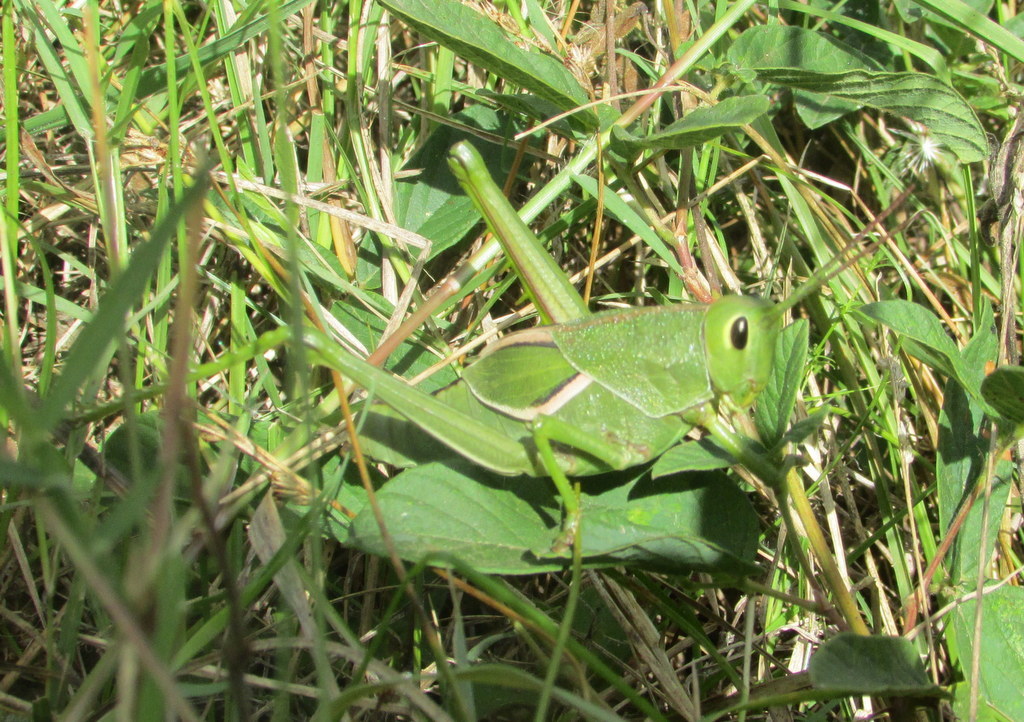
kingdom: Animalia
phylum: Arthropoda
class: Insecta
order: Orthoptera
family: Romaleidae
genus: Staleochlora
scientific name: Staleochlora viridicata
